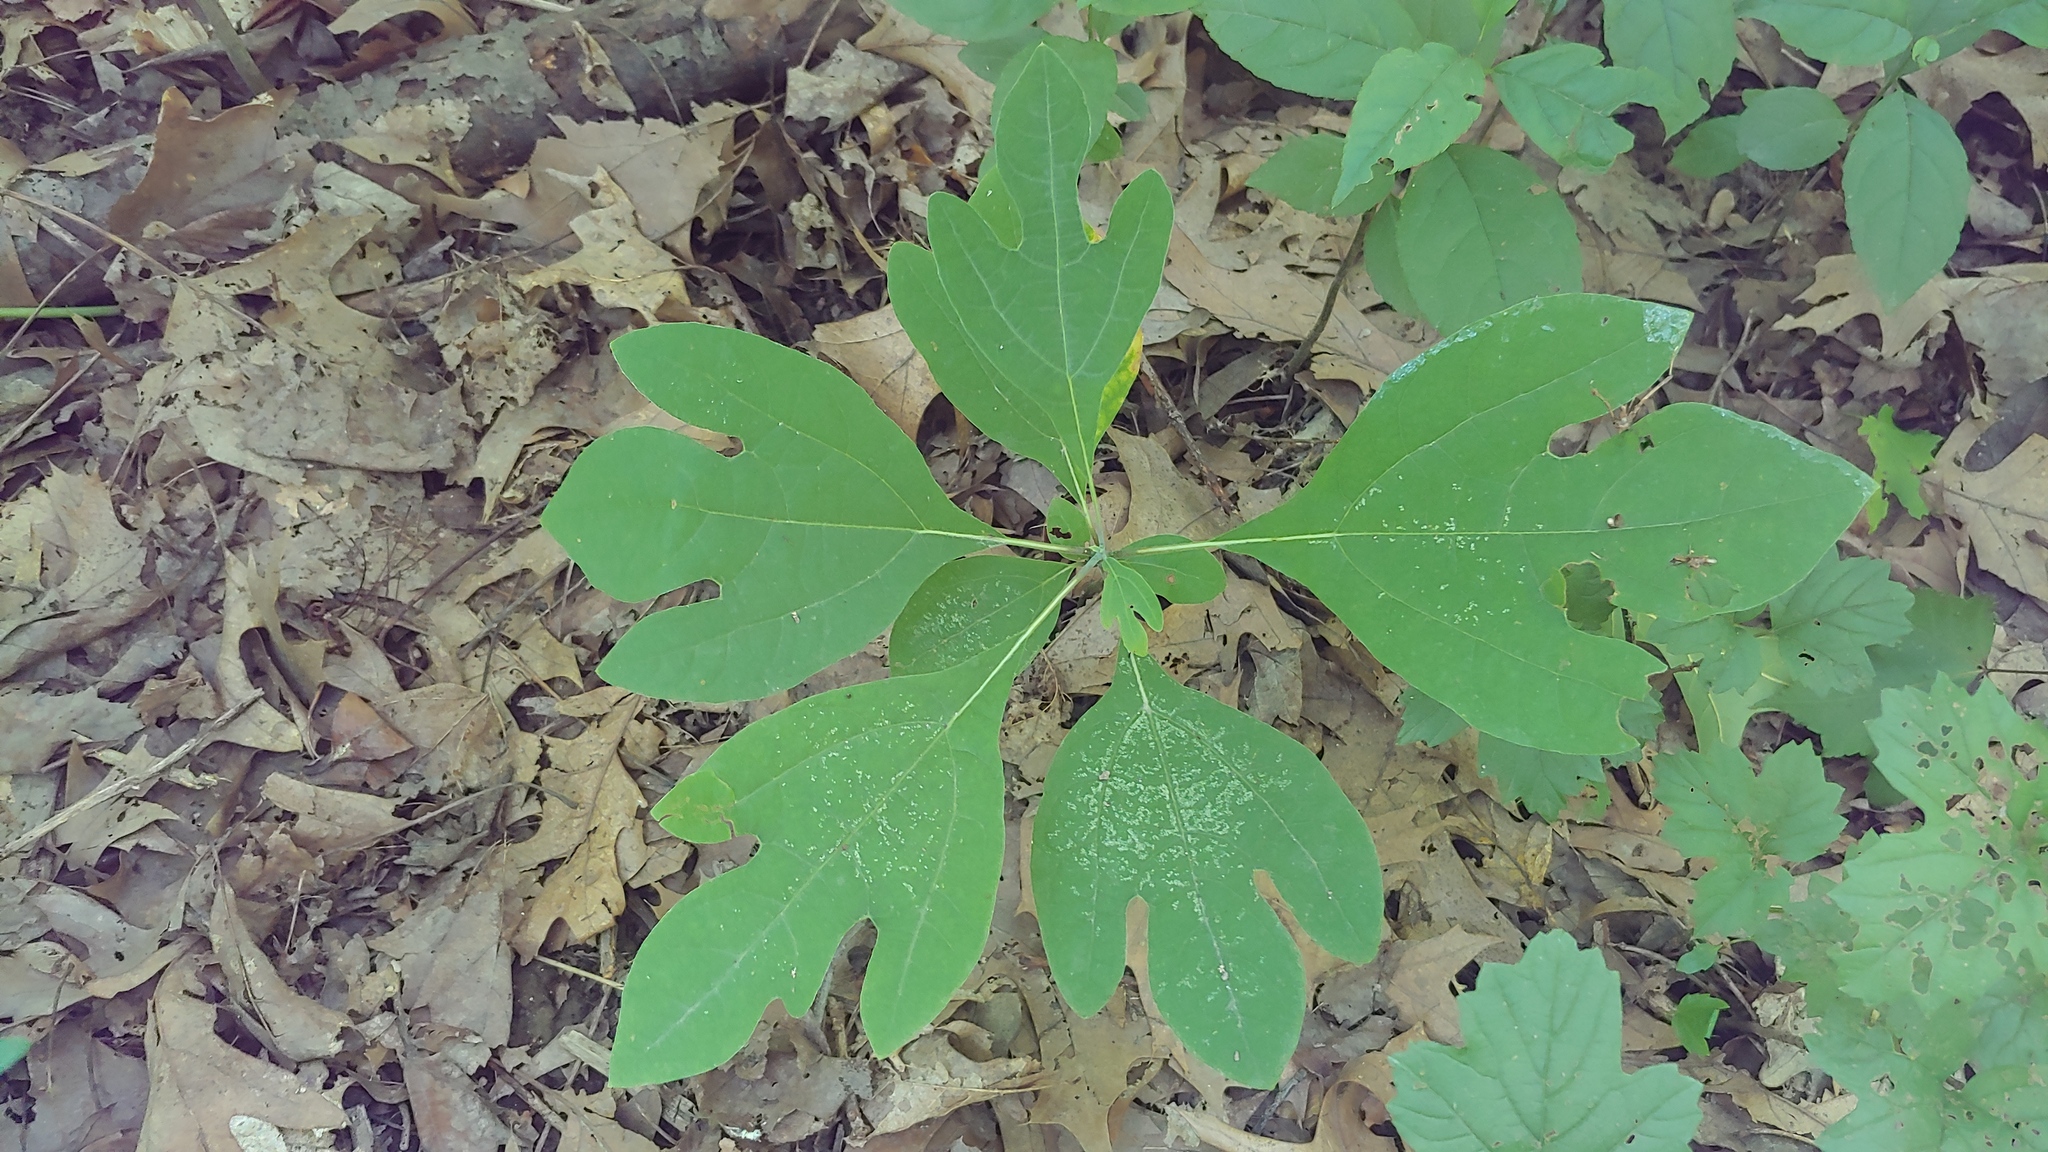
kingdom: Plantae
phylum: Tracheophyta
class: Magnoliopsida
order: Laurales
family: Lauraceae
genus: Sassafras
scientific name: Sassafras albidum
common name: Sassafras
